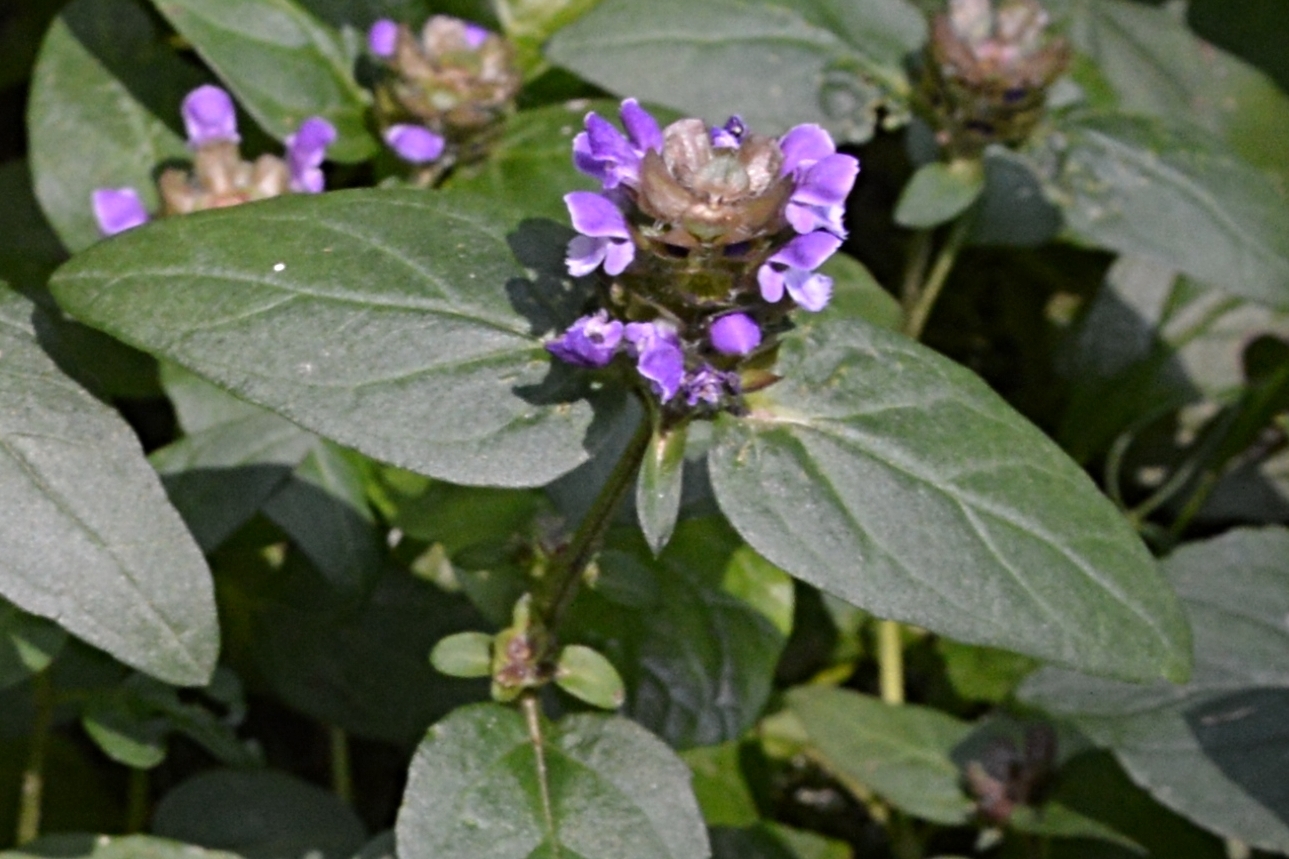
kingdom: Plantae
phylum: Tracheophyta
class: Magnoliopsida
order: Lamiales
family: Lamiaceae
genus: Prunella
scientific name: Prunella vulgaris
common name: Heal-all
